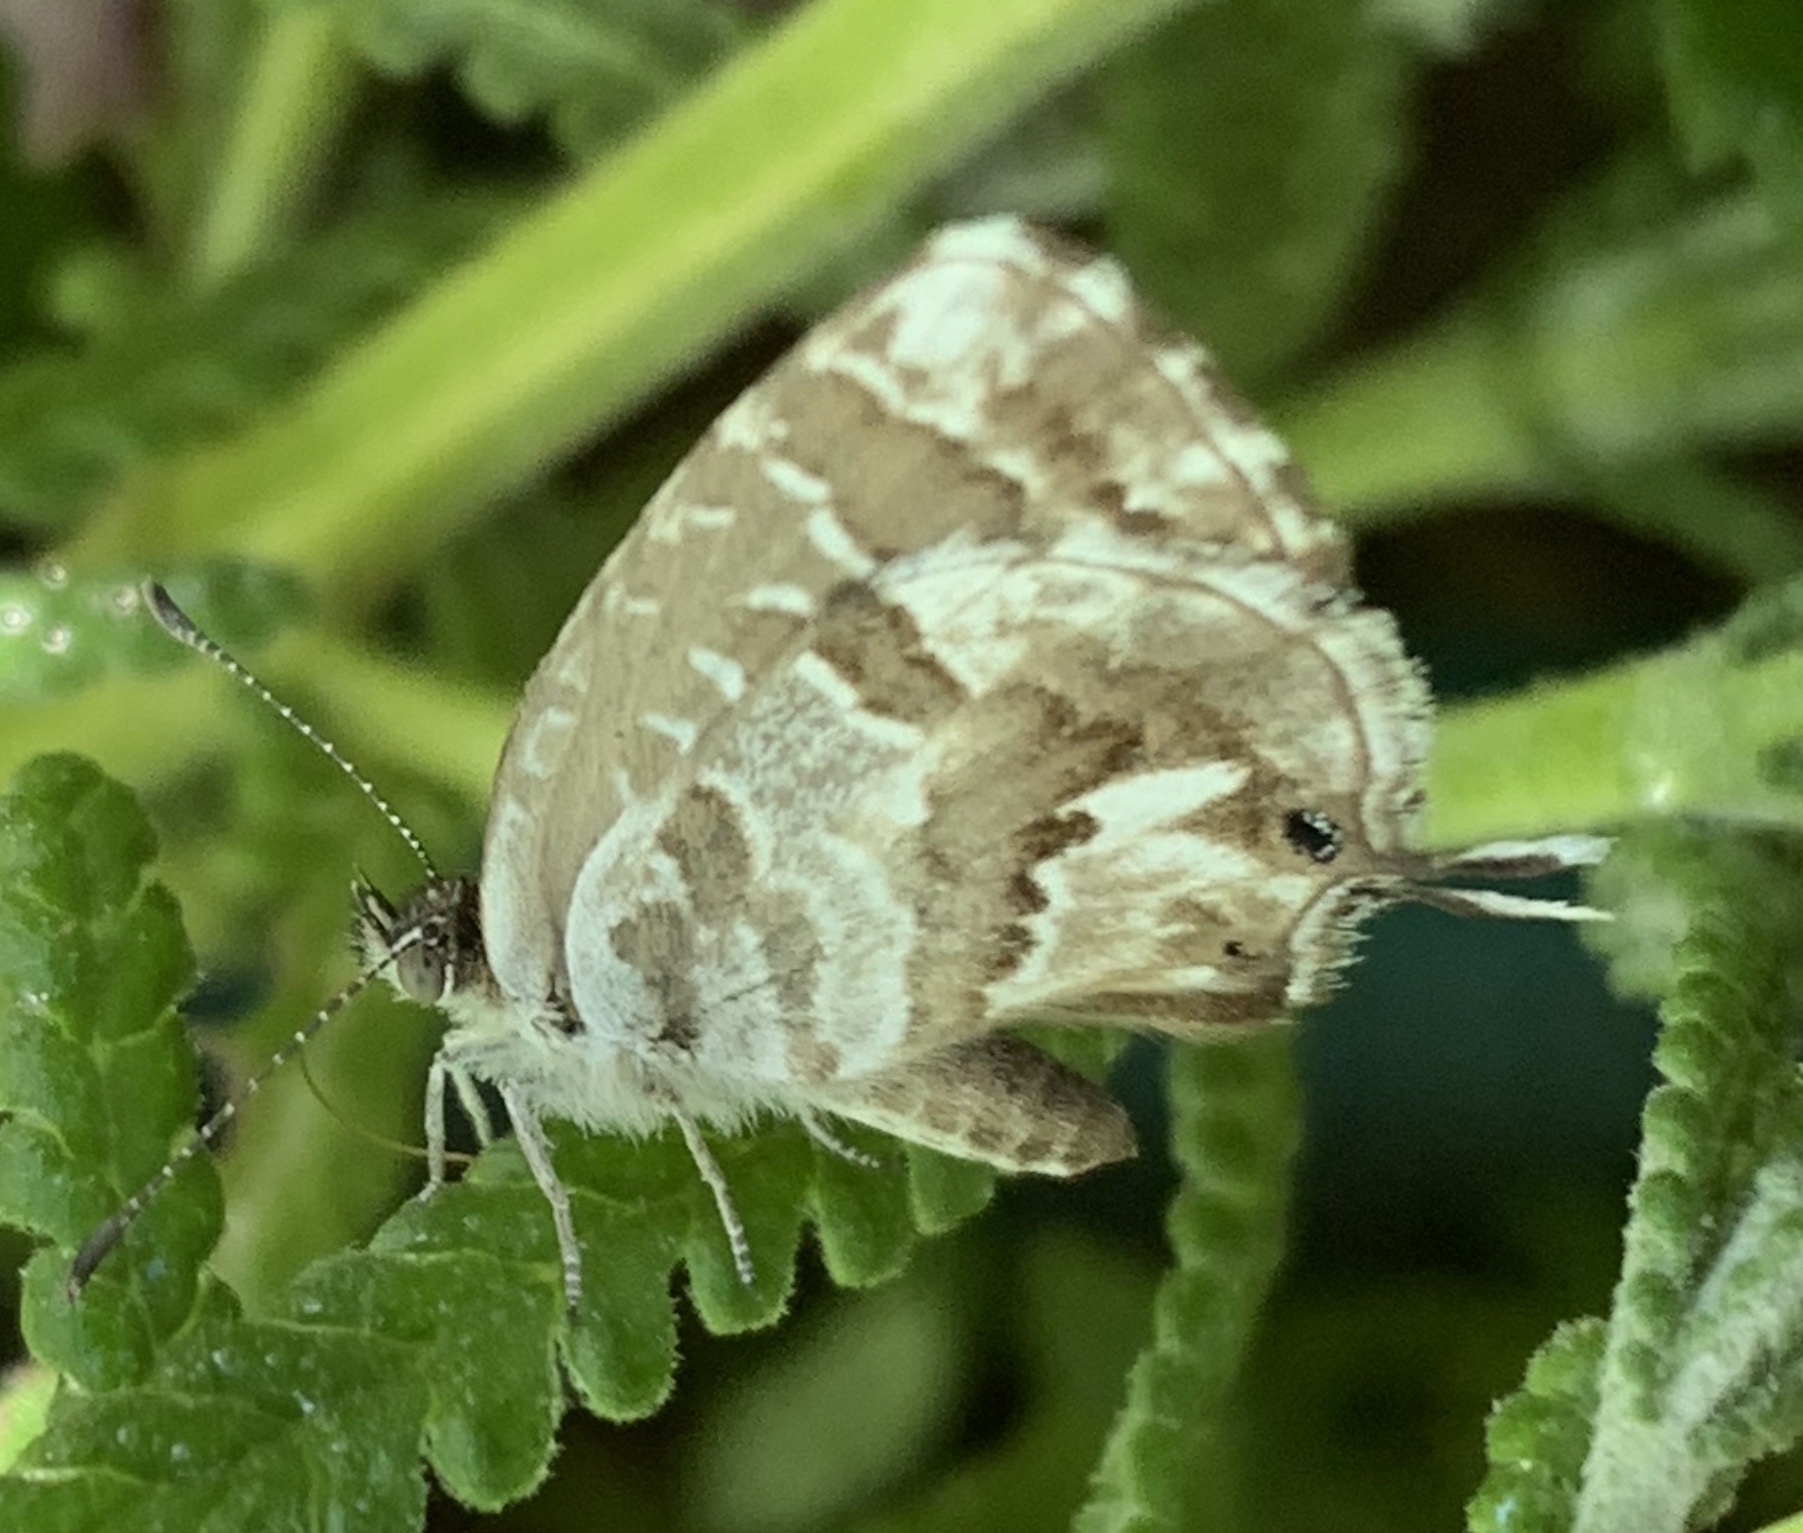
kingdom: Animalia
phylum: Arthropoda
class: Insecta
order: Lepidoptera
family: Lycaenidae
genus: Cacyreus
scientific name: Cacyreus marshalli
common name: Geranium bronze
